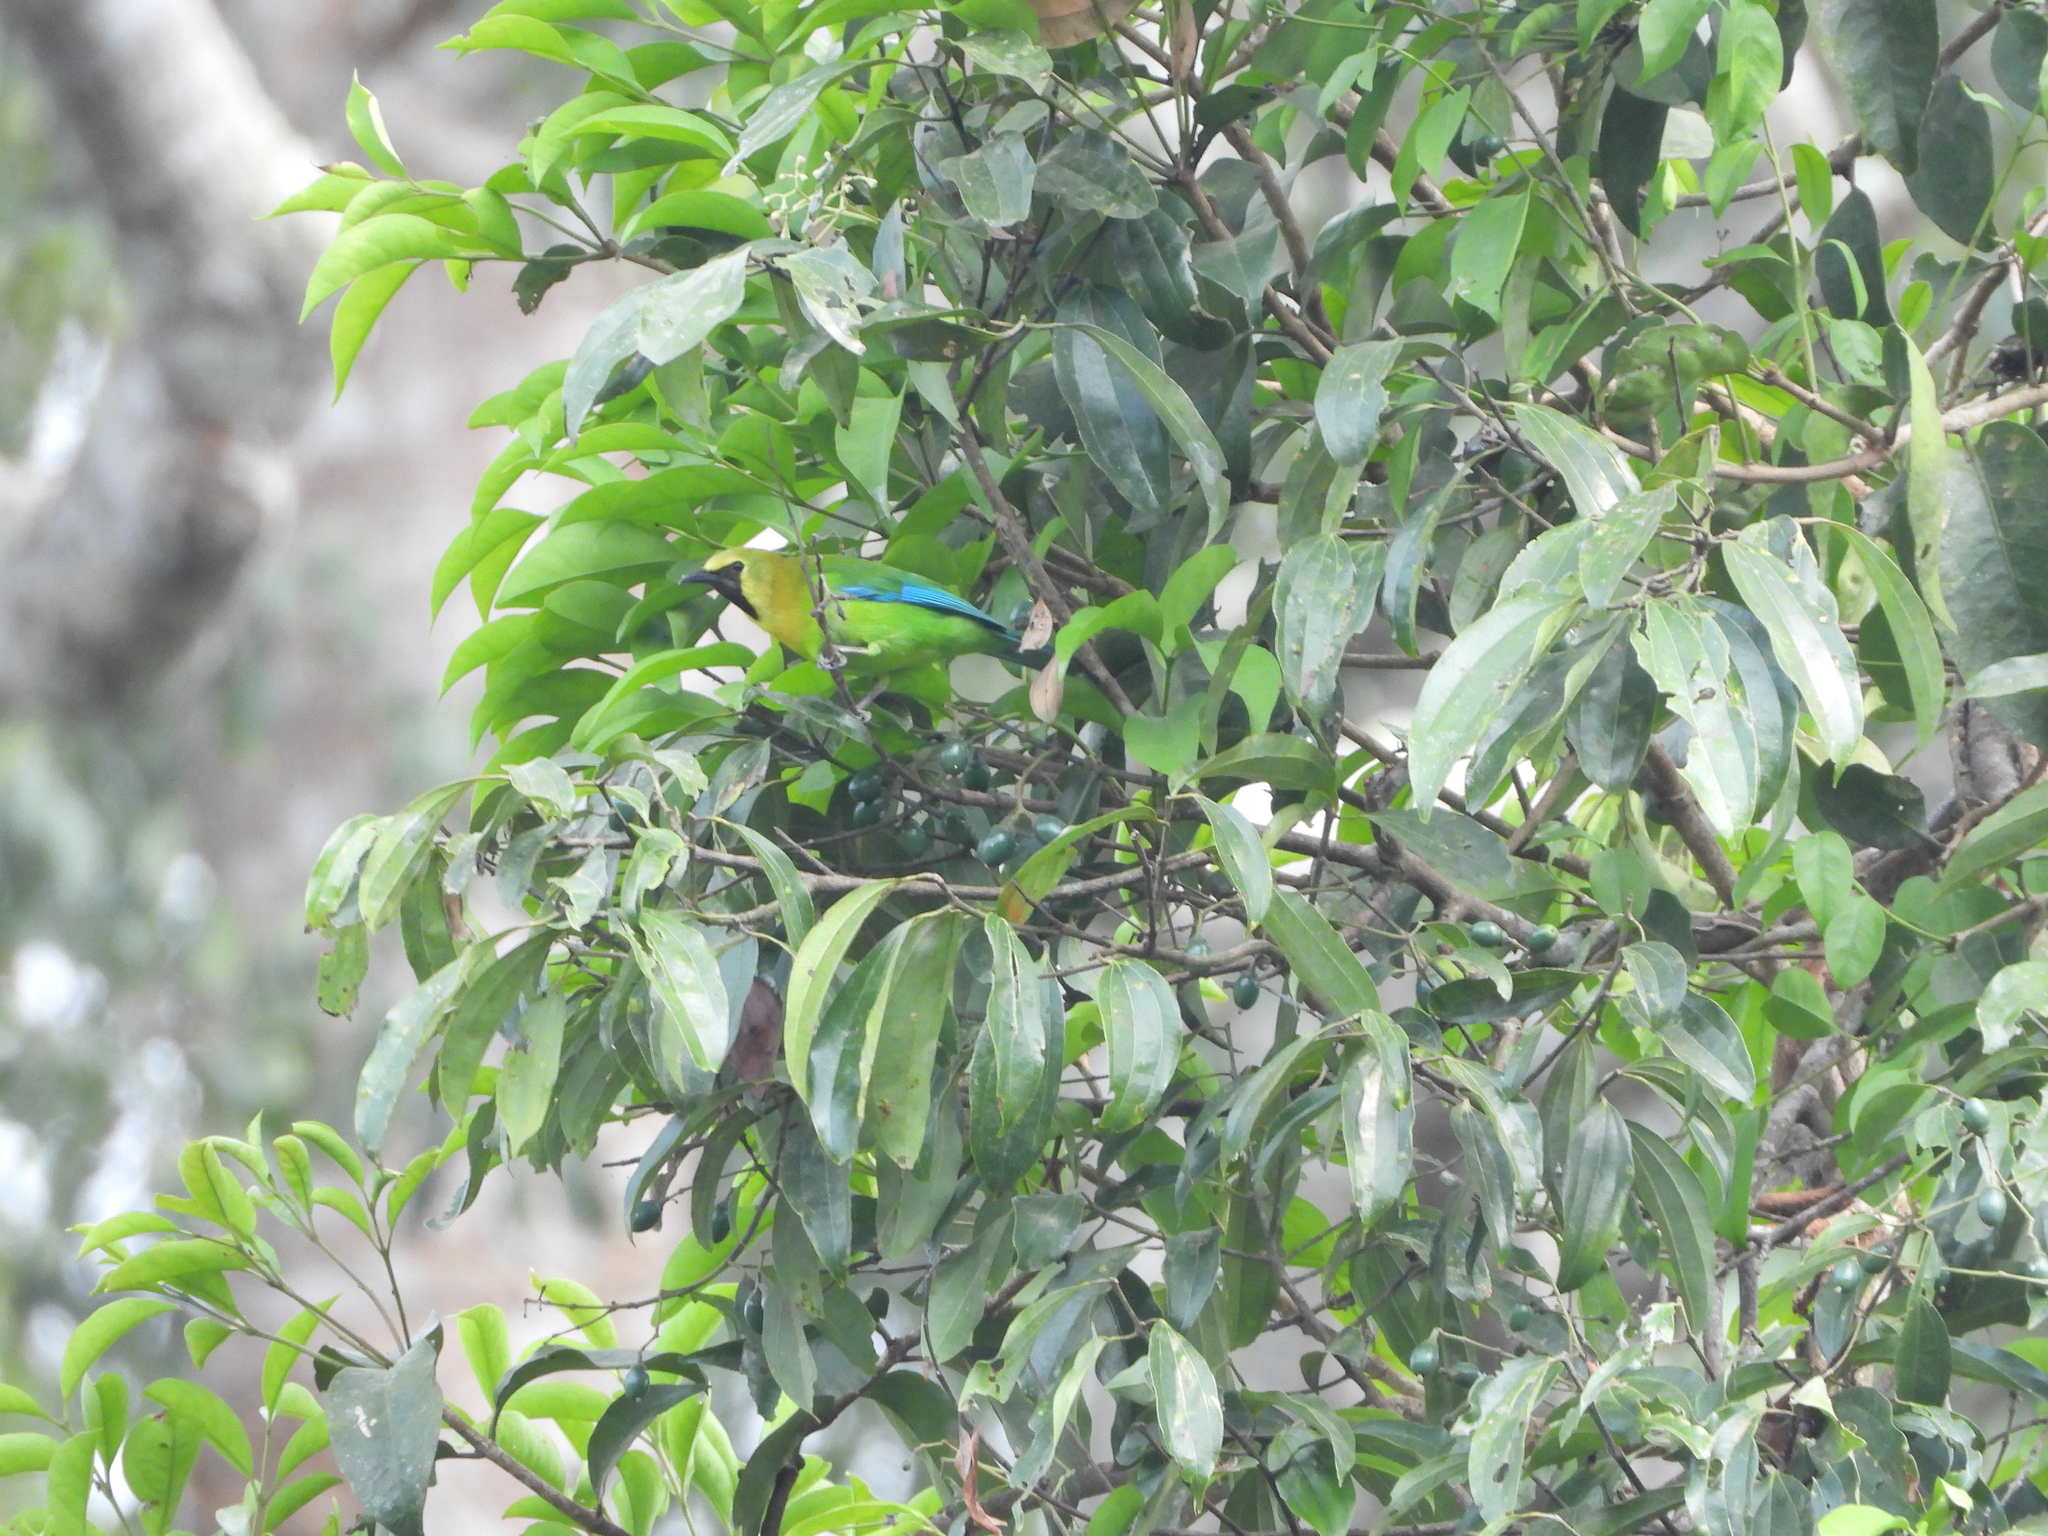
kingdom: Animalia
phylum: Chordata
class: Aves
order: Passeriformes
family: Chloropseidae
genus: Chloropsis
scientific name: Chloropsis moluccensis
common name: Blue-winged leafbird
